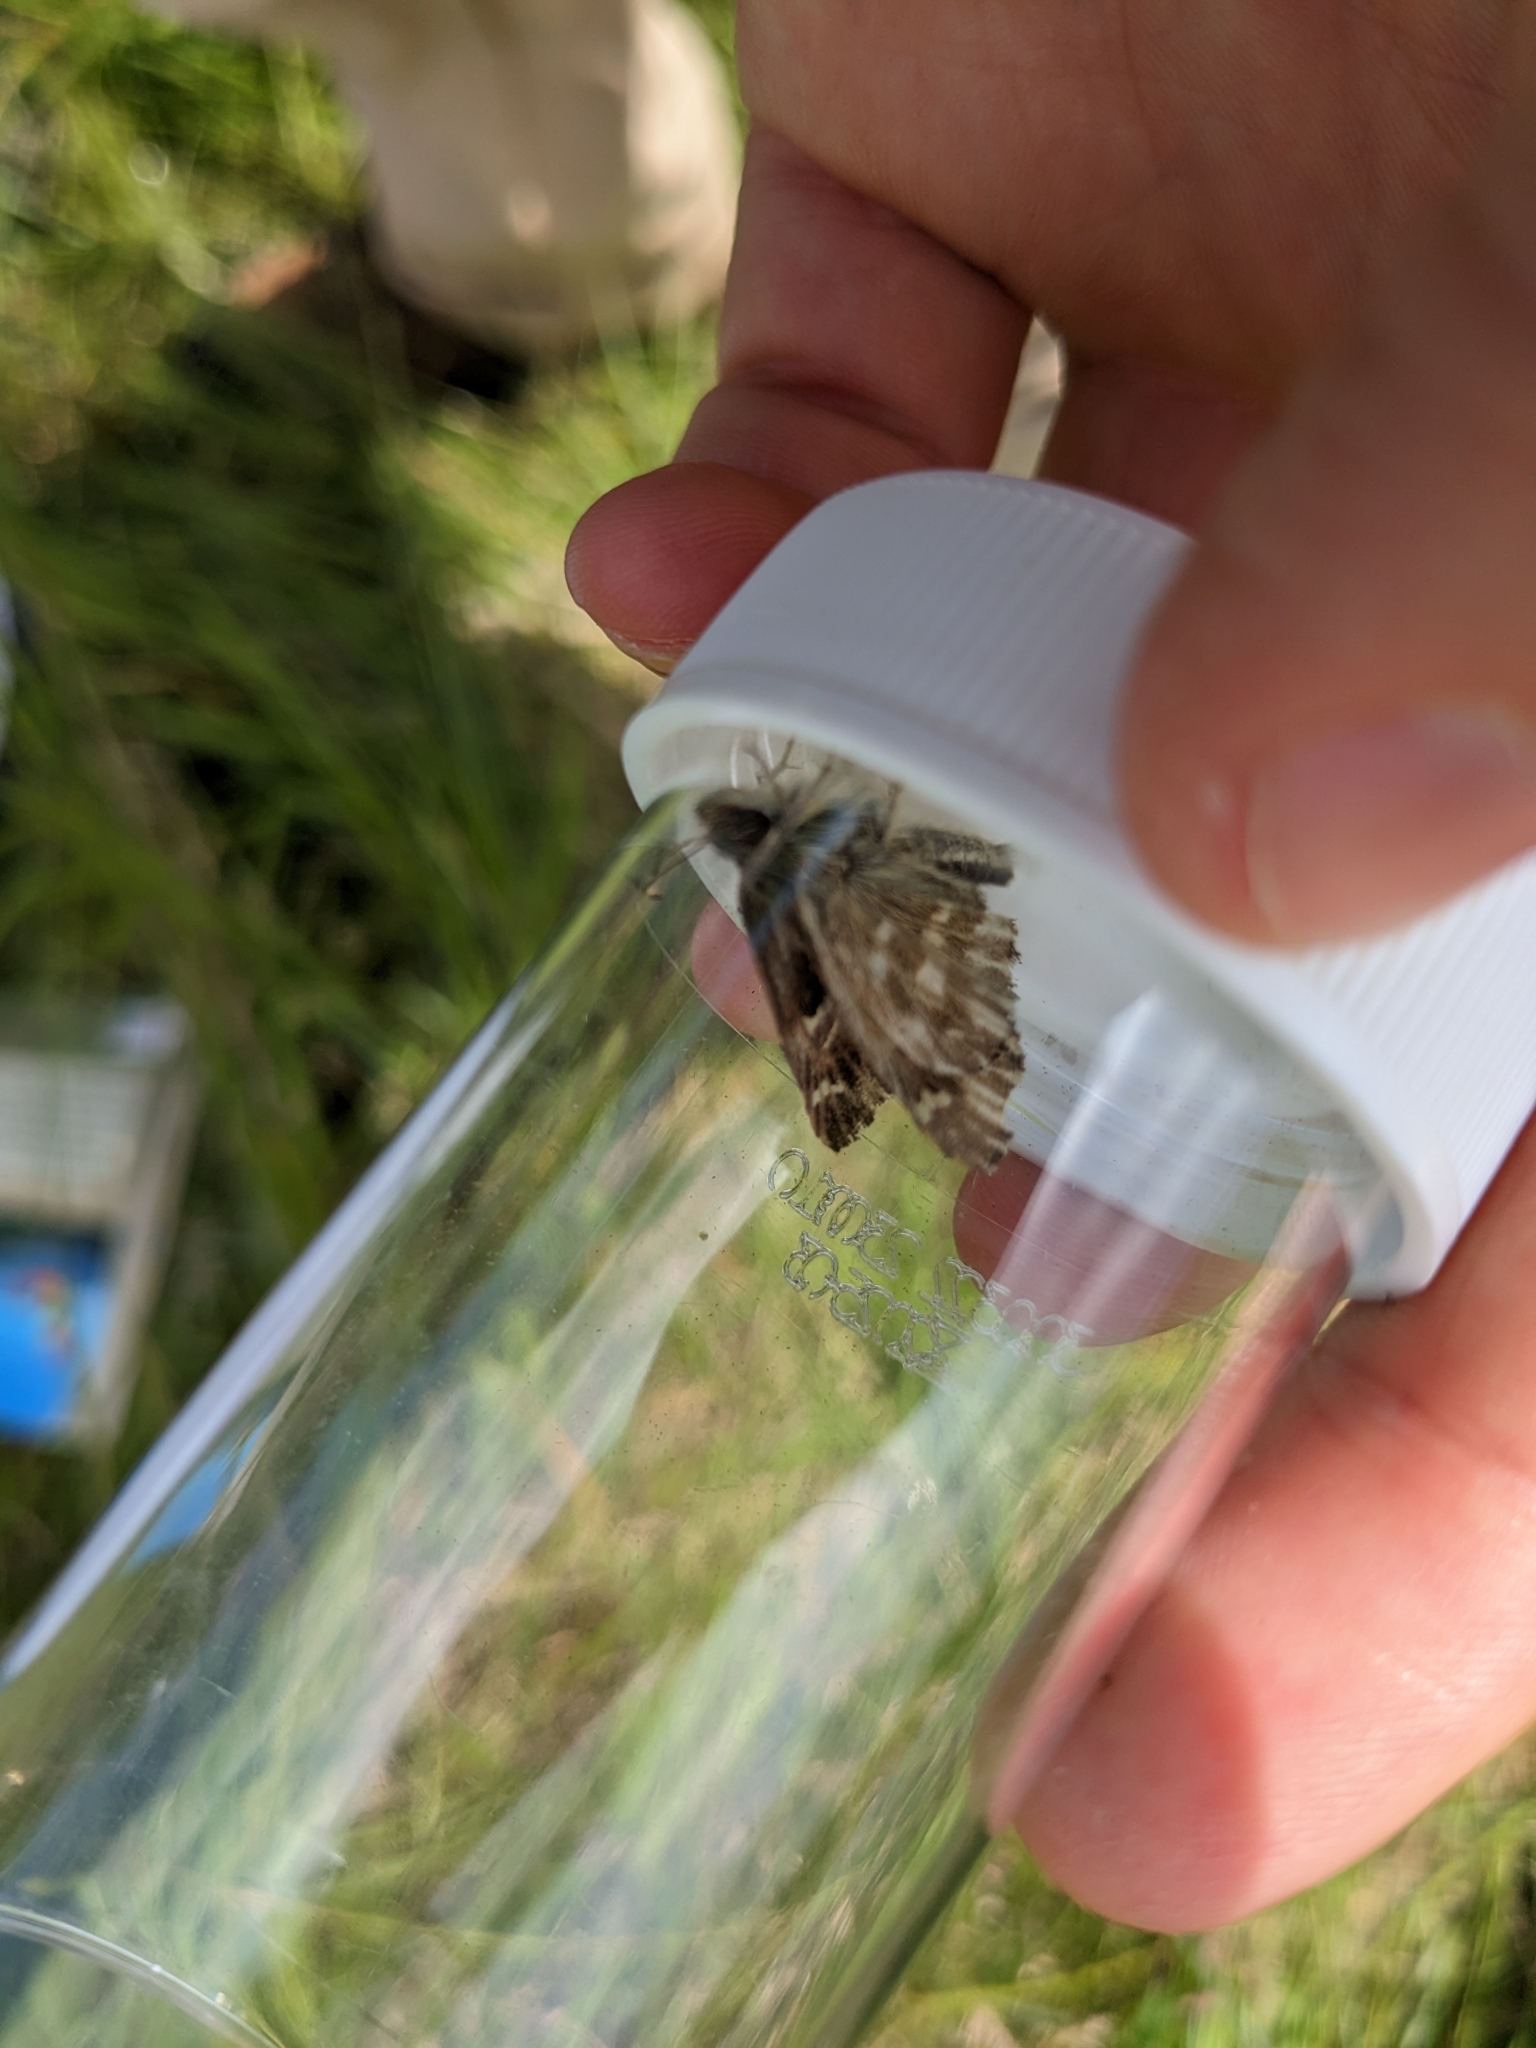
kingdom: Animalia
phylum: Arthropoda
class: Insecta
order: Lepidoptera
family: Hesperiidae
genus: Carcharodus
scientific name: Carcharodus floccifera
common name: Tufted marbled skipper
